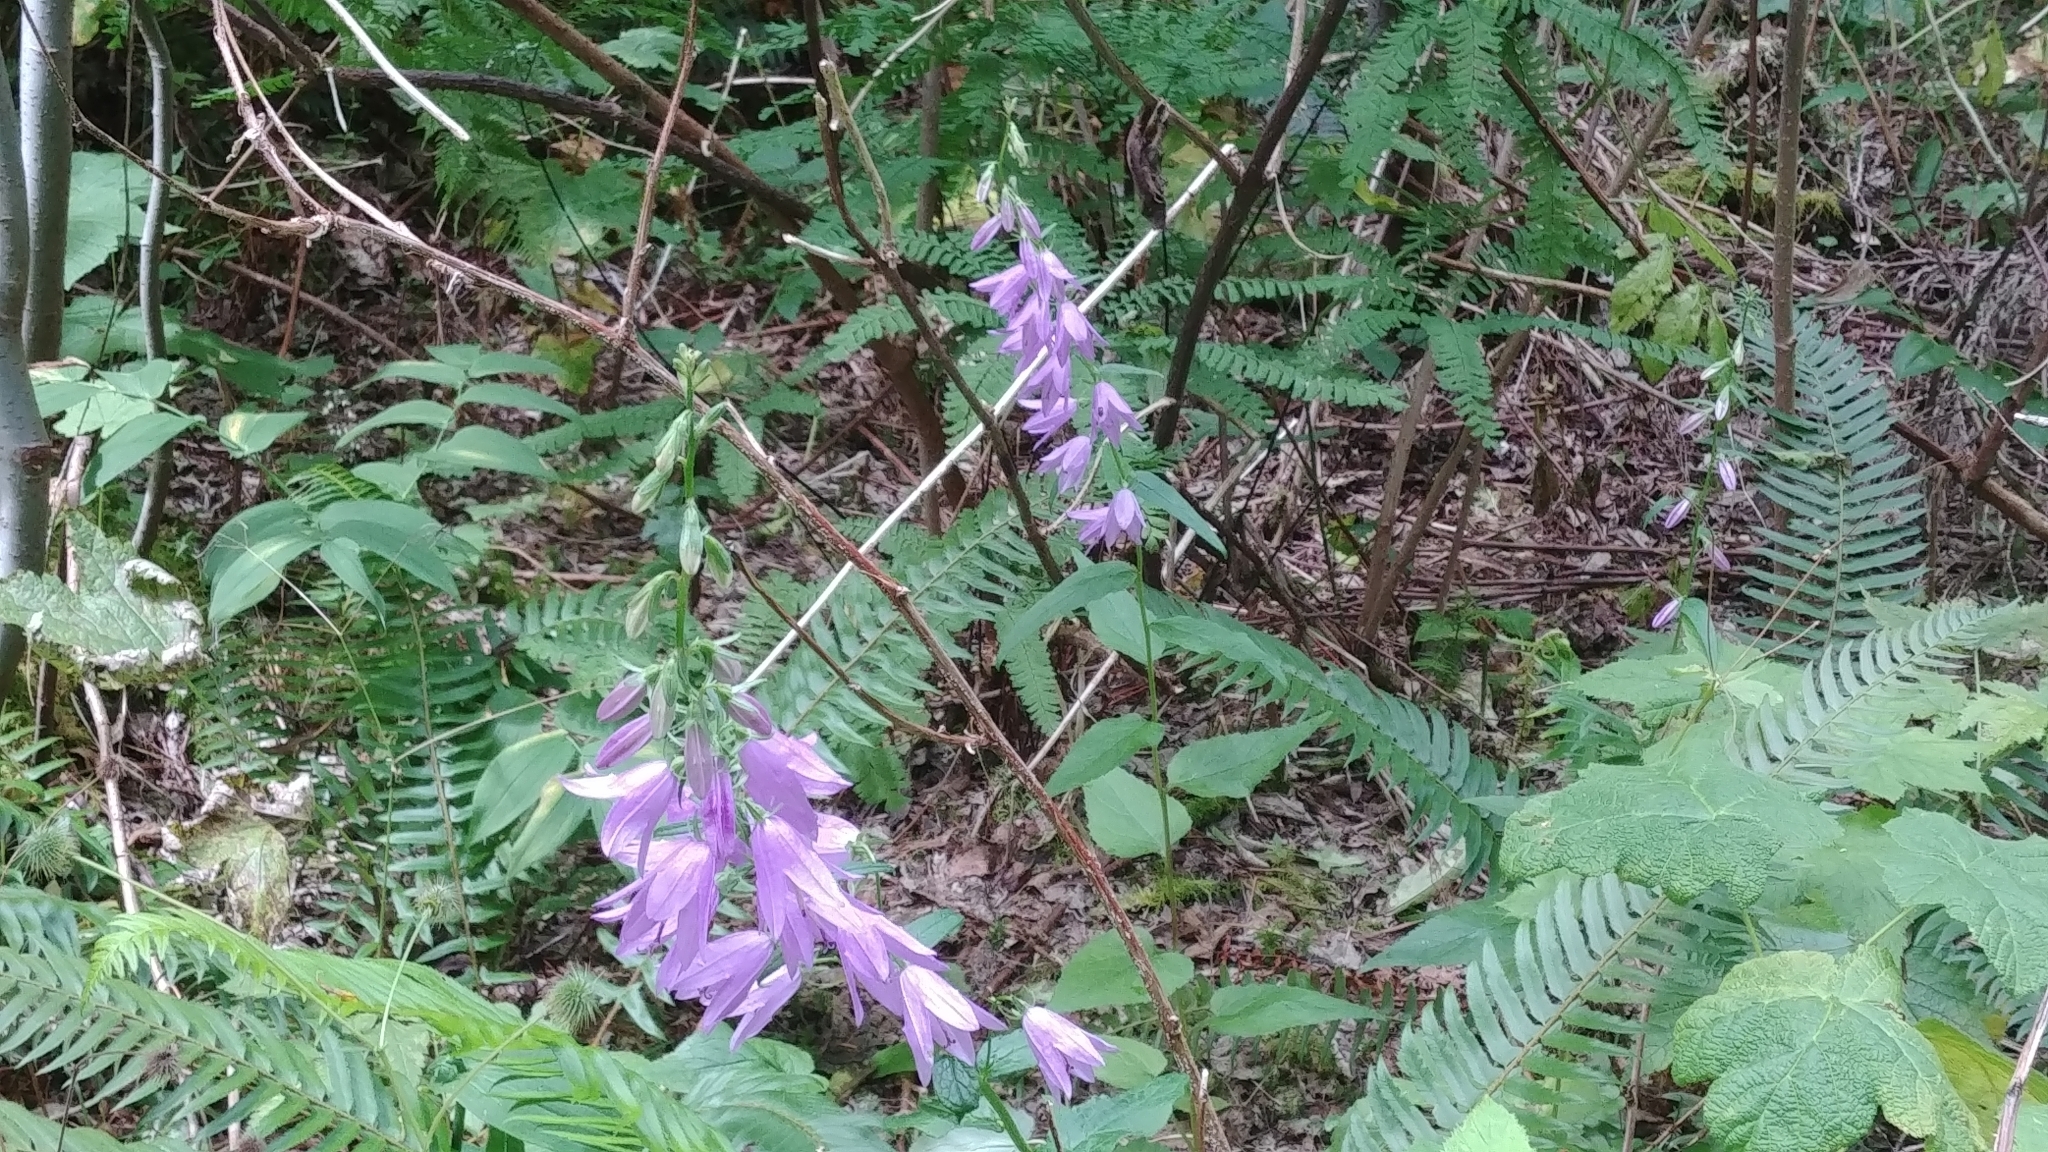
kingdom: Plantae
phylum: Tracheophyta
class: Magnoliopsida
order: Asterales
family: Campanulaceae
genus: Campanula
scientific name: Campanula rapunculoides
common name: Creeping bellflower
